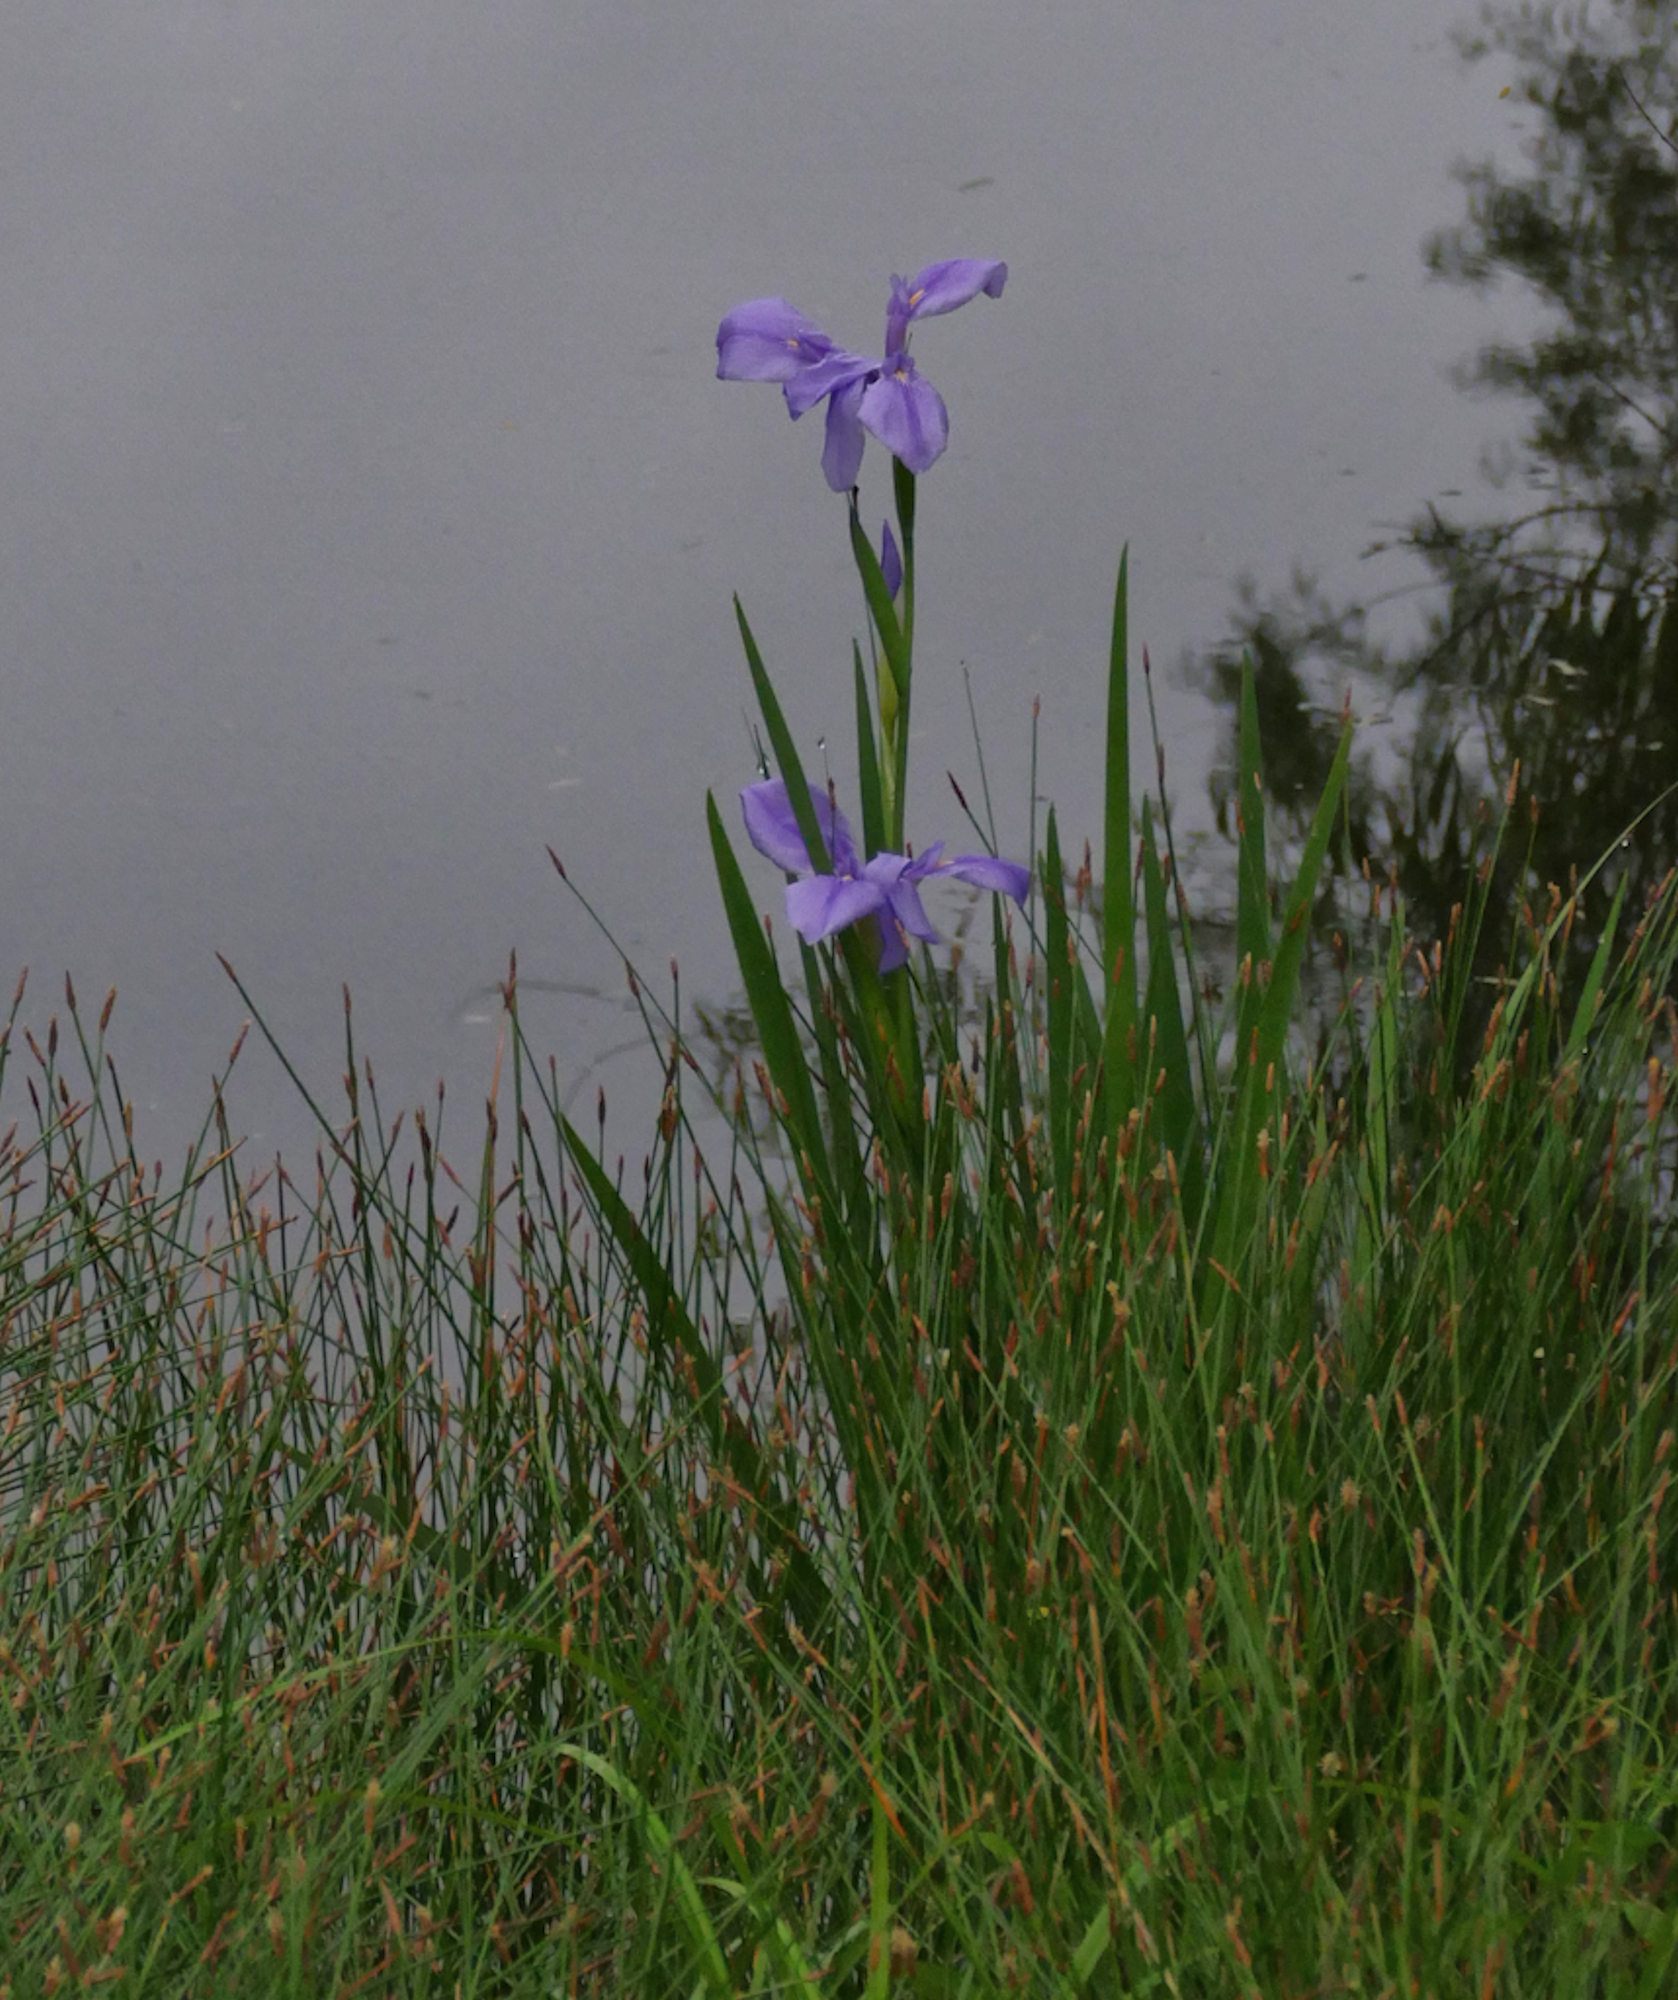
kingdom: Plantae
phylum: Tracheophyta
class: Liliopsida
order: Asparagales
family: Iridaceae
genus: Iris
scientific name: Iris giganticaerulea
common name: Giant blue iris
